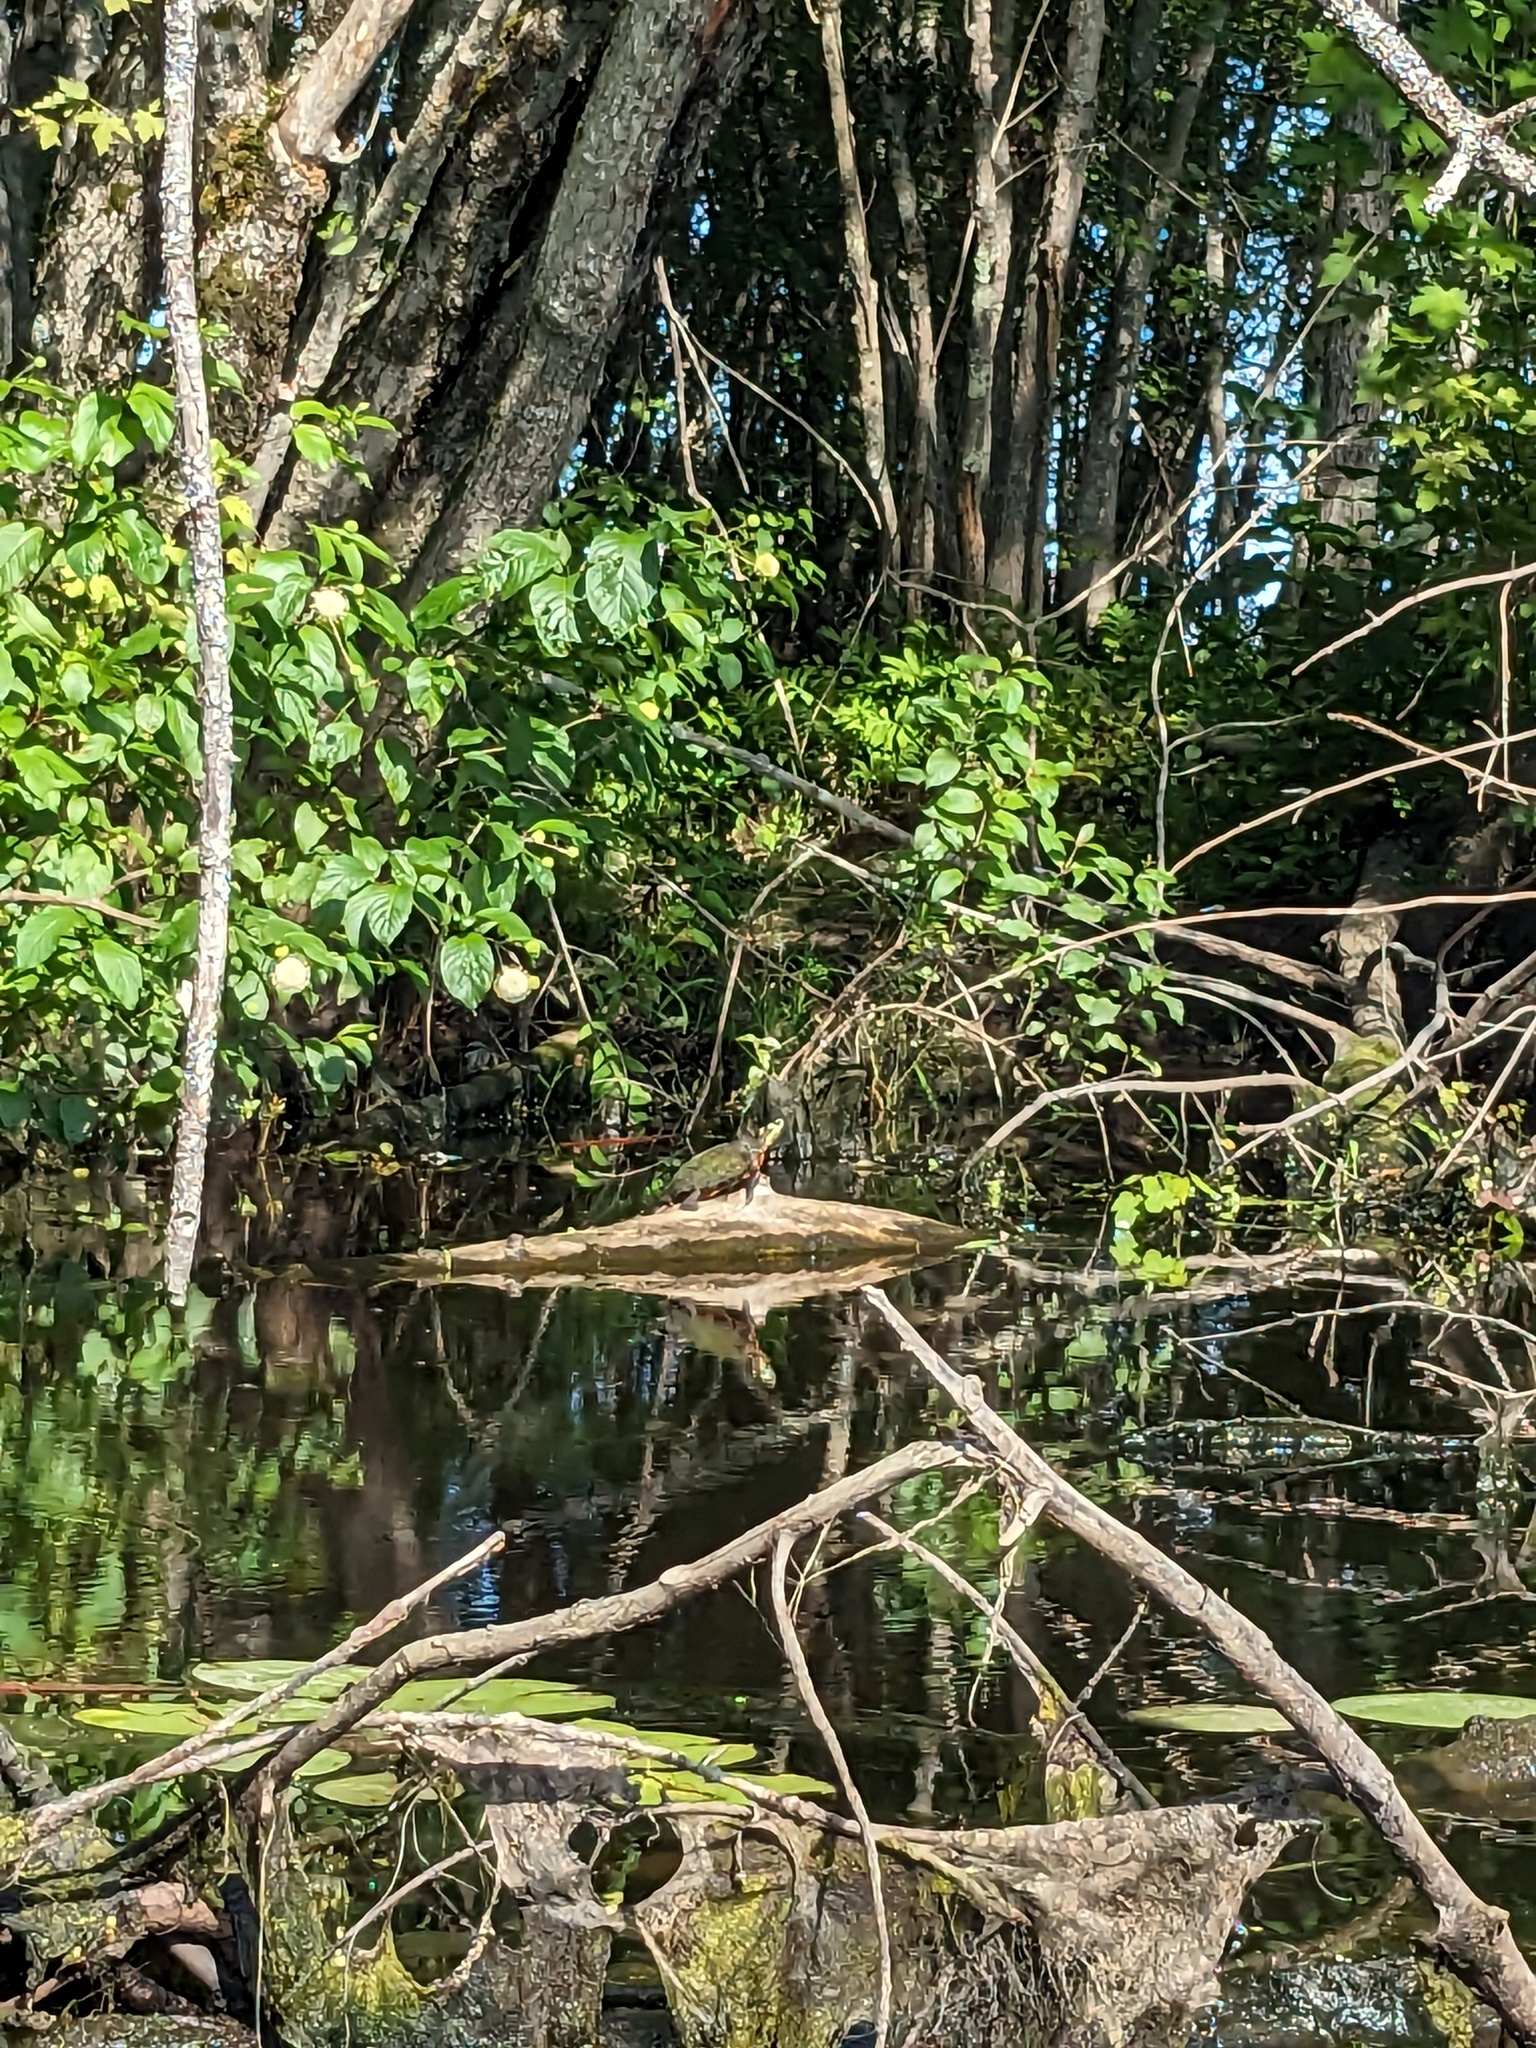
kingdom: Animalia
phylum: Chordata
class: Testudines
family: Emydidae
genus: Chrysemys
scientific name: Chrysemys picta
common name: Painted turtle
